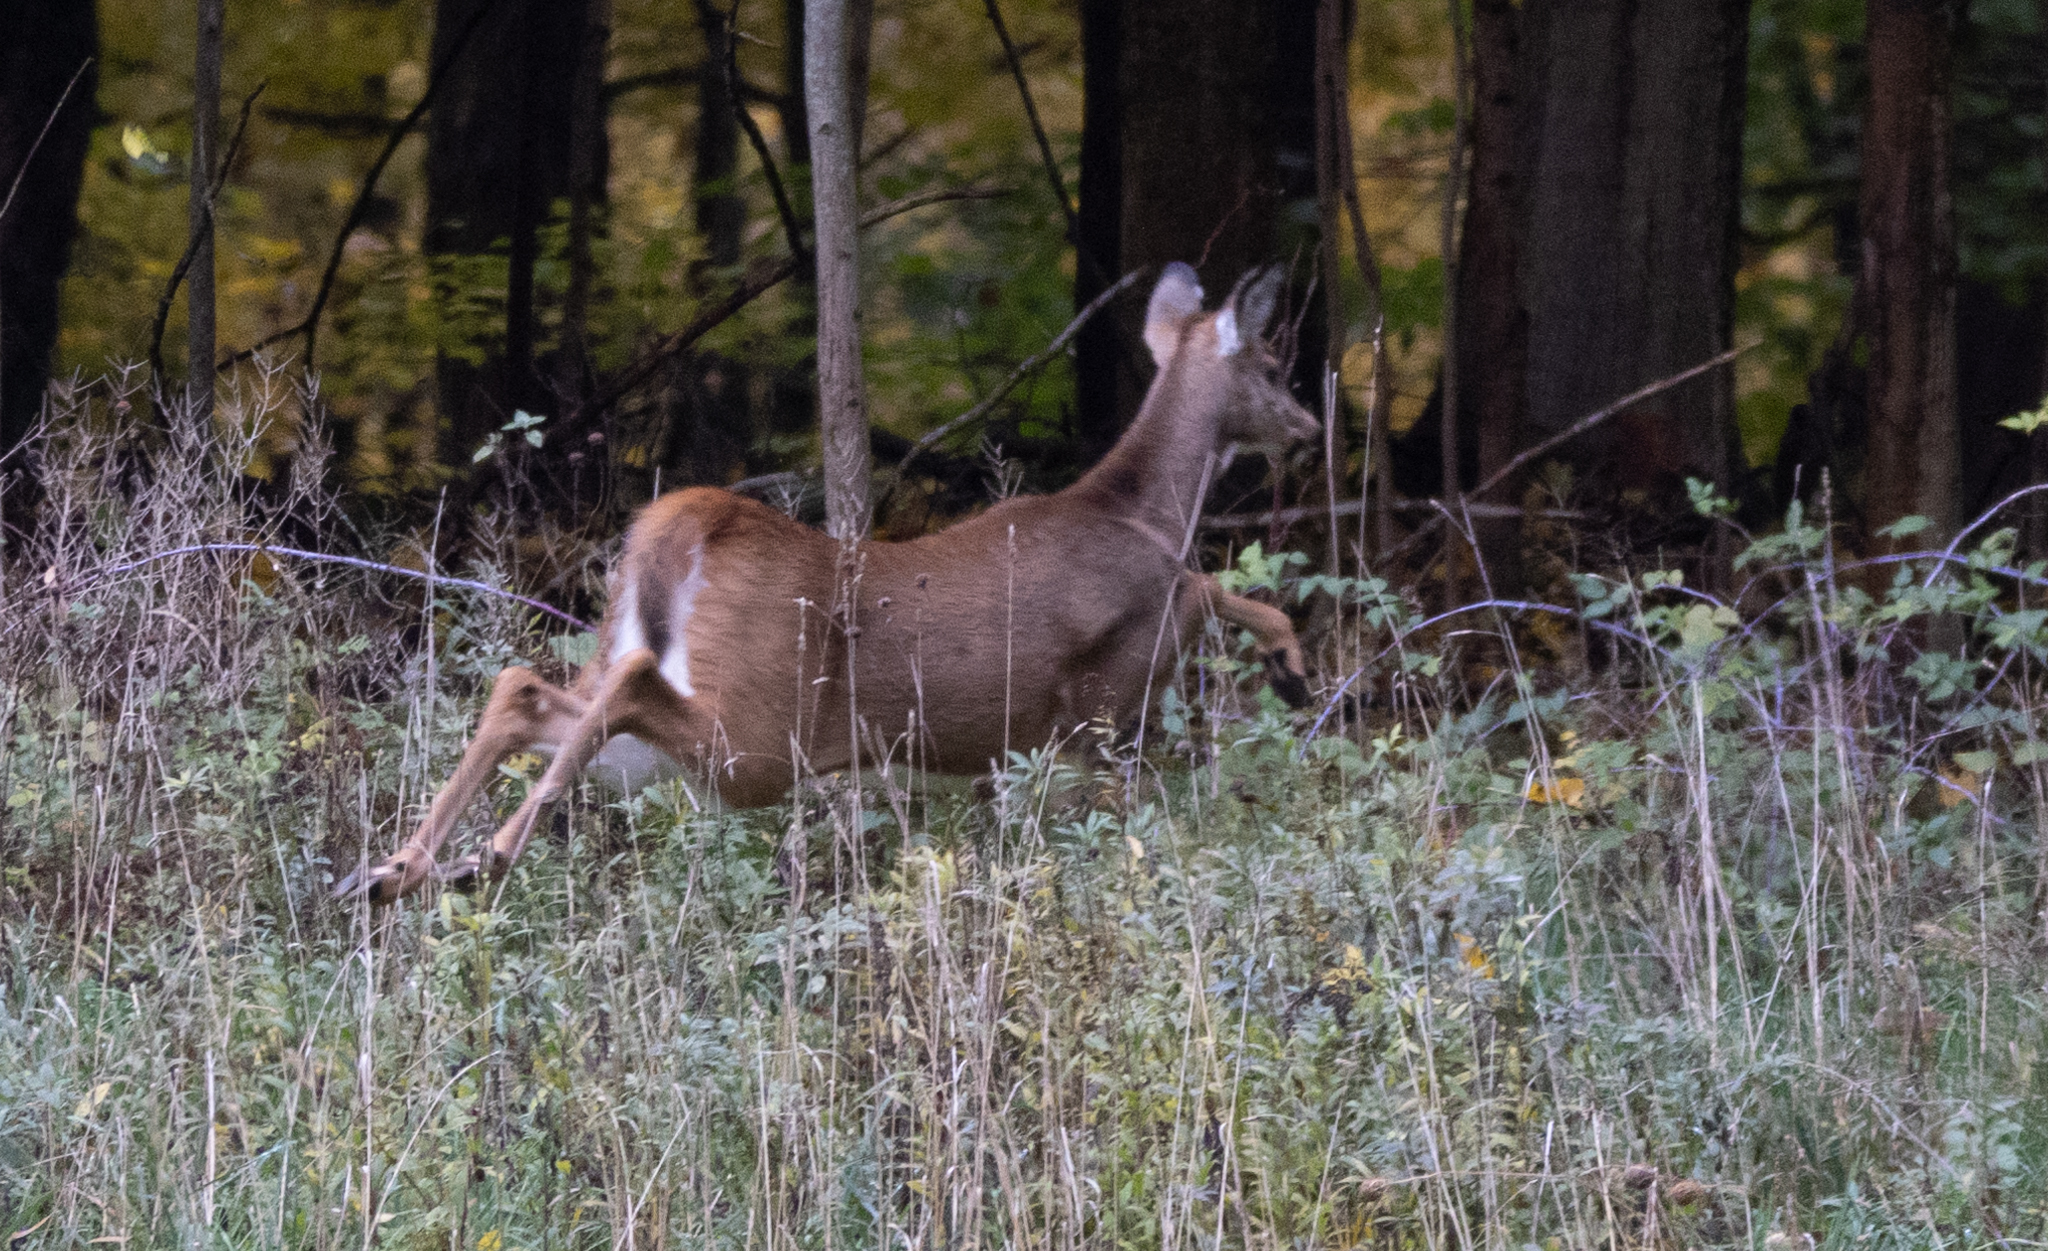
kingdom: Animalia
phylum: Chordata
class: Mammalia
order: Artiodactyla
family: Cervidae
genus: Odocoileus
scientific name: Odocoileus virginianus
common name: White-tailed deer
